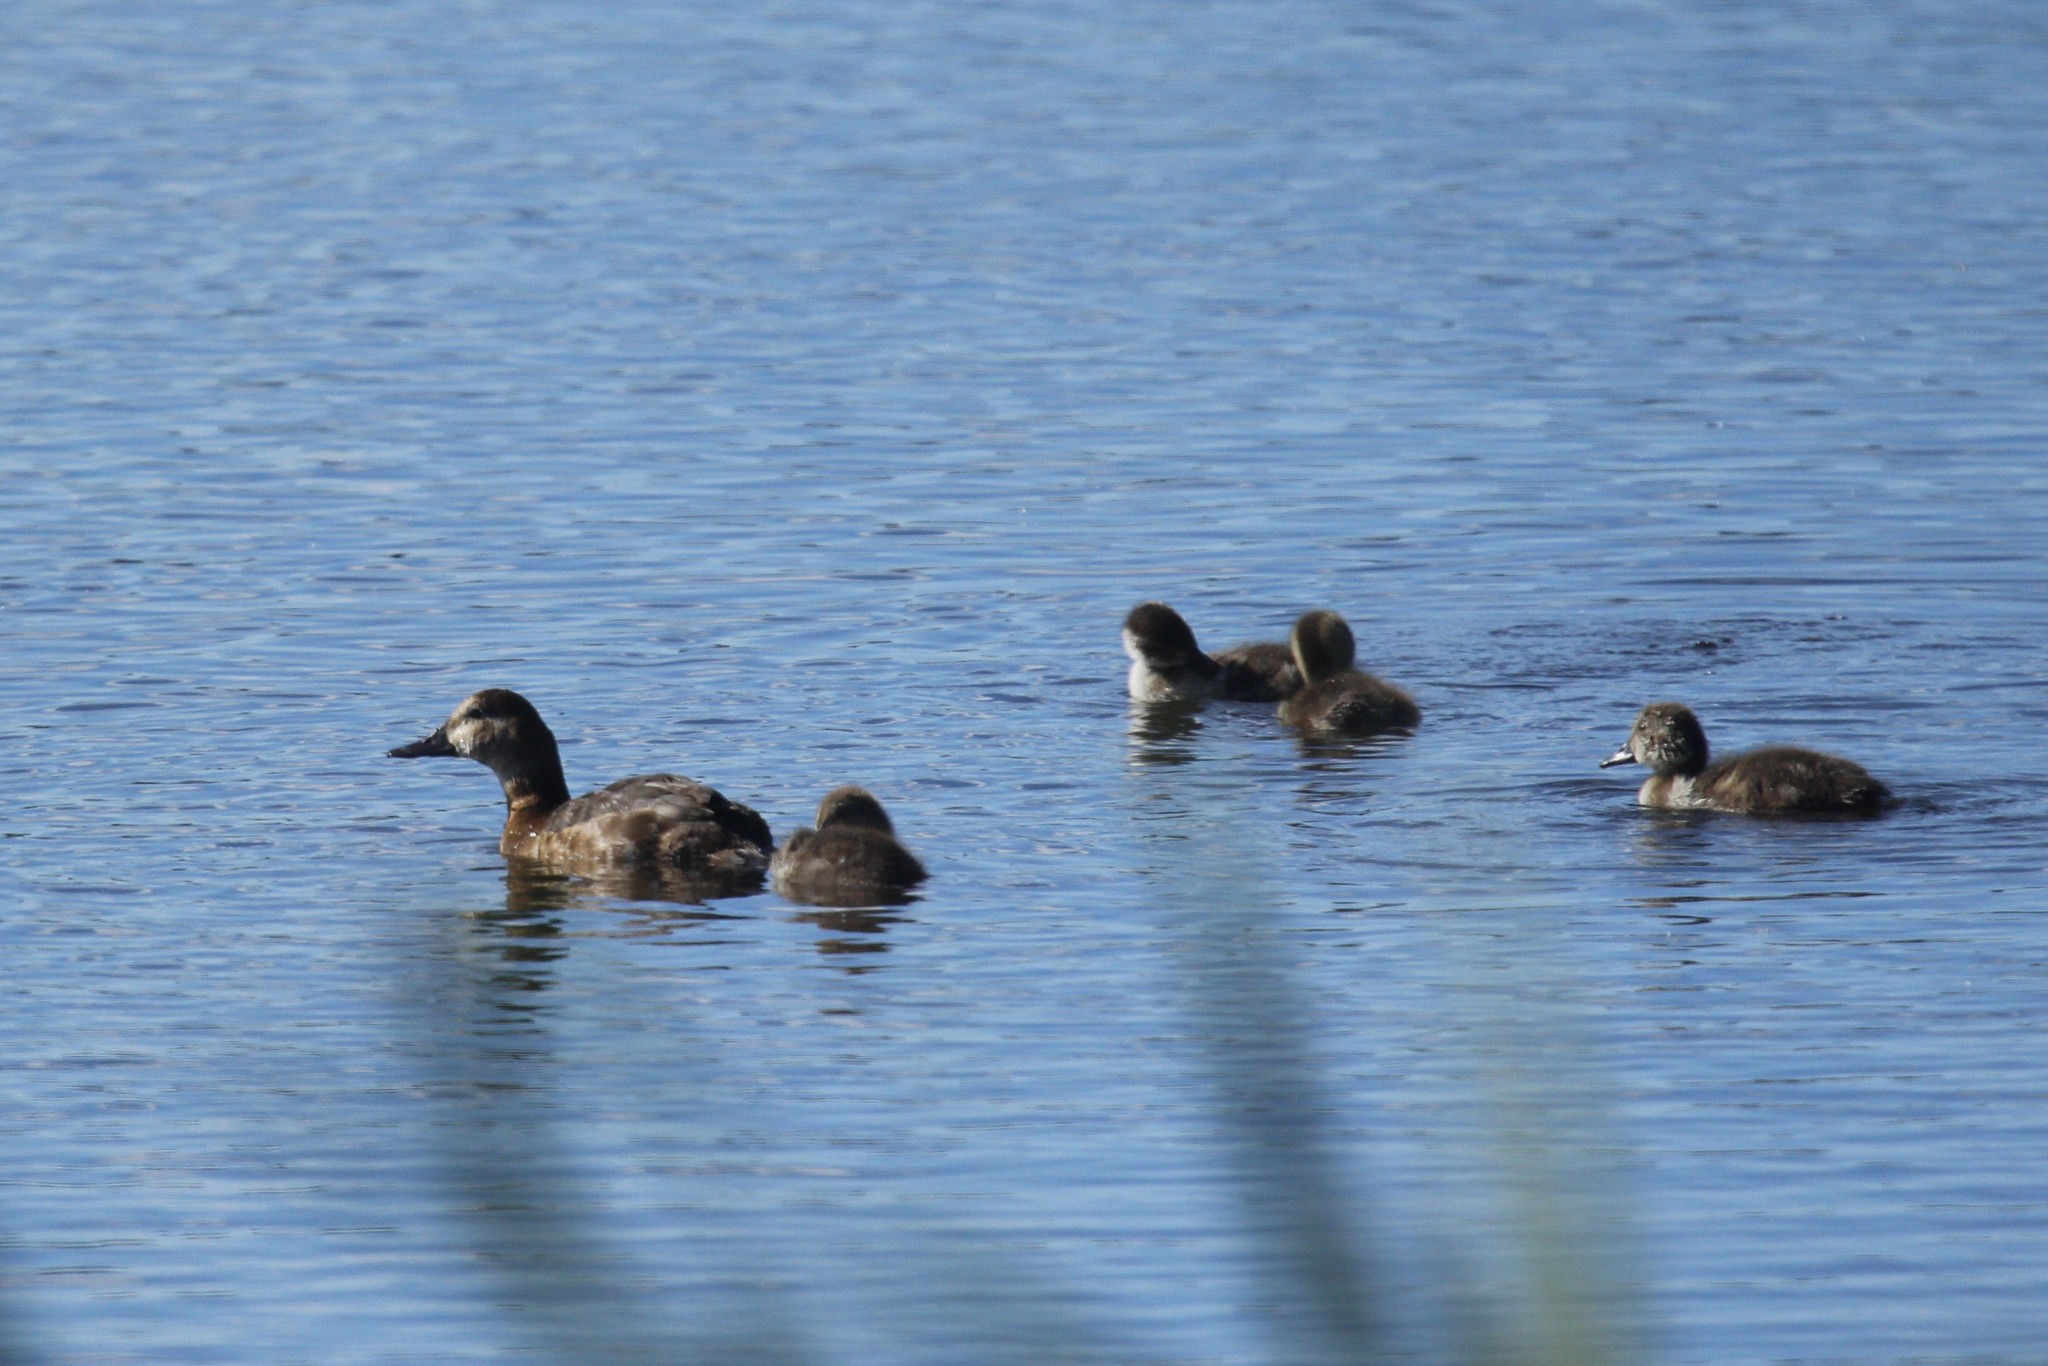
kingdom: Animalia
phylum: Chordata
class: Aves
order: Anseriformes
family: Anatidae
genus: Aythya
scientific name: Aythya ferina
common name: Common pochard
